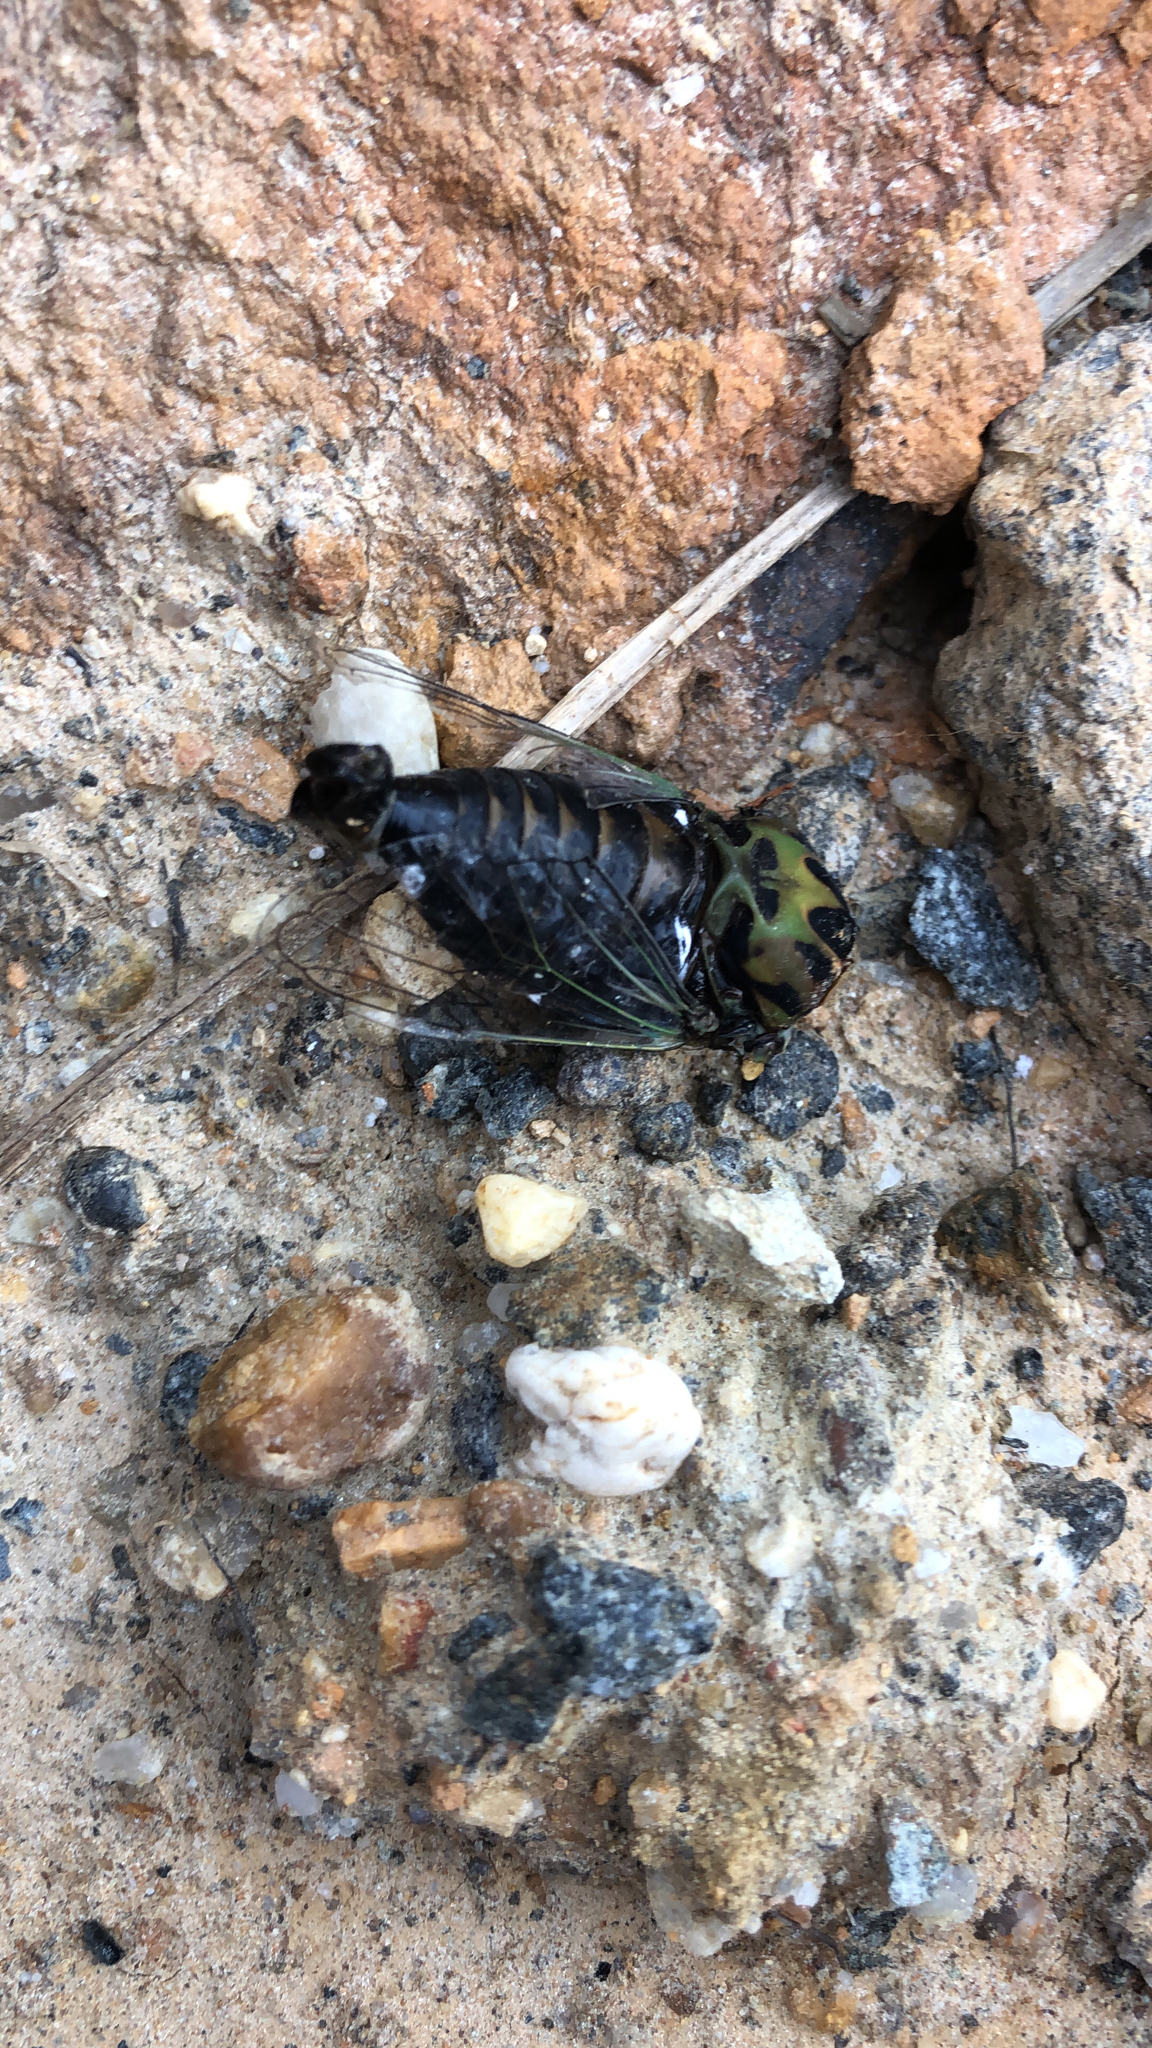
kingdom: Animalia
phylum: Arthropoda
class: Insecta
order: Hemiptera
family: Cicadidae
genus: Neotibicen
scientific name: Neotibicen winnemanna
